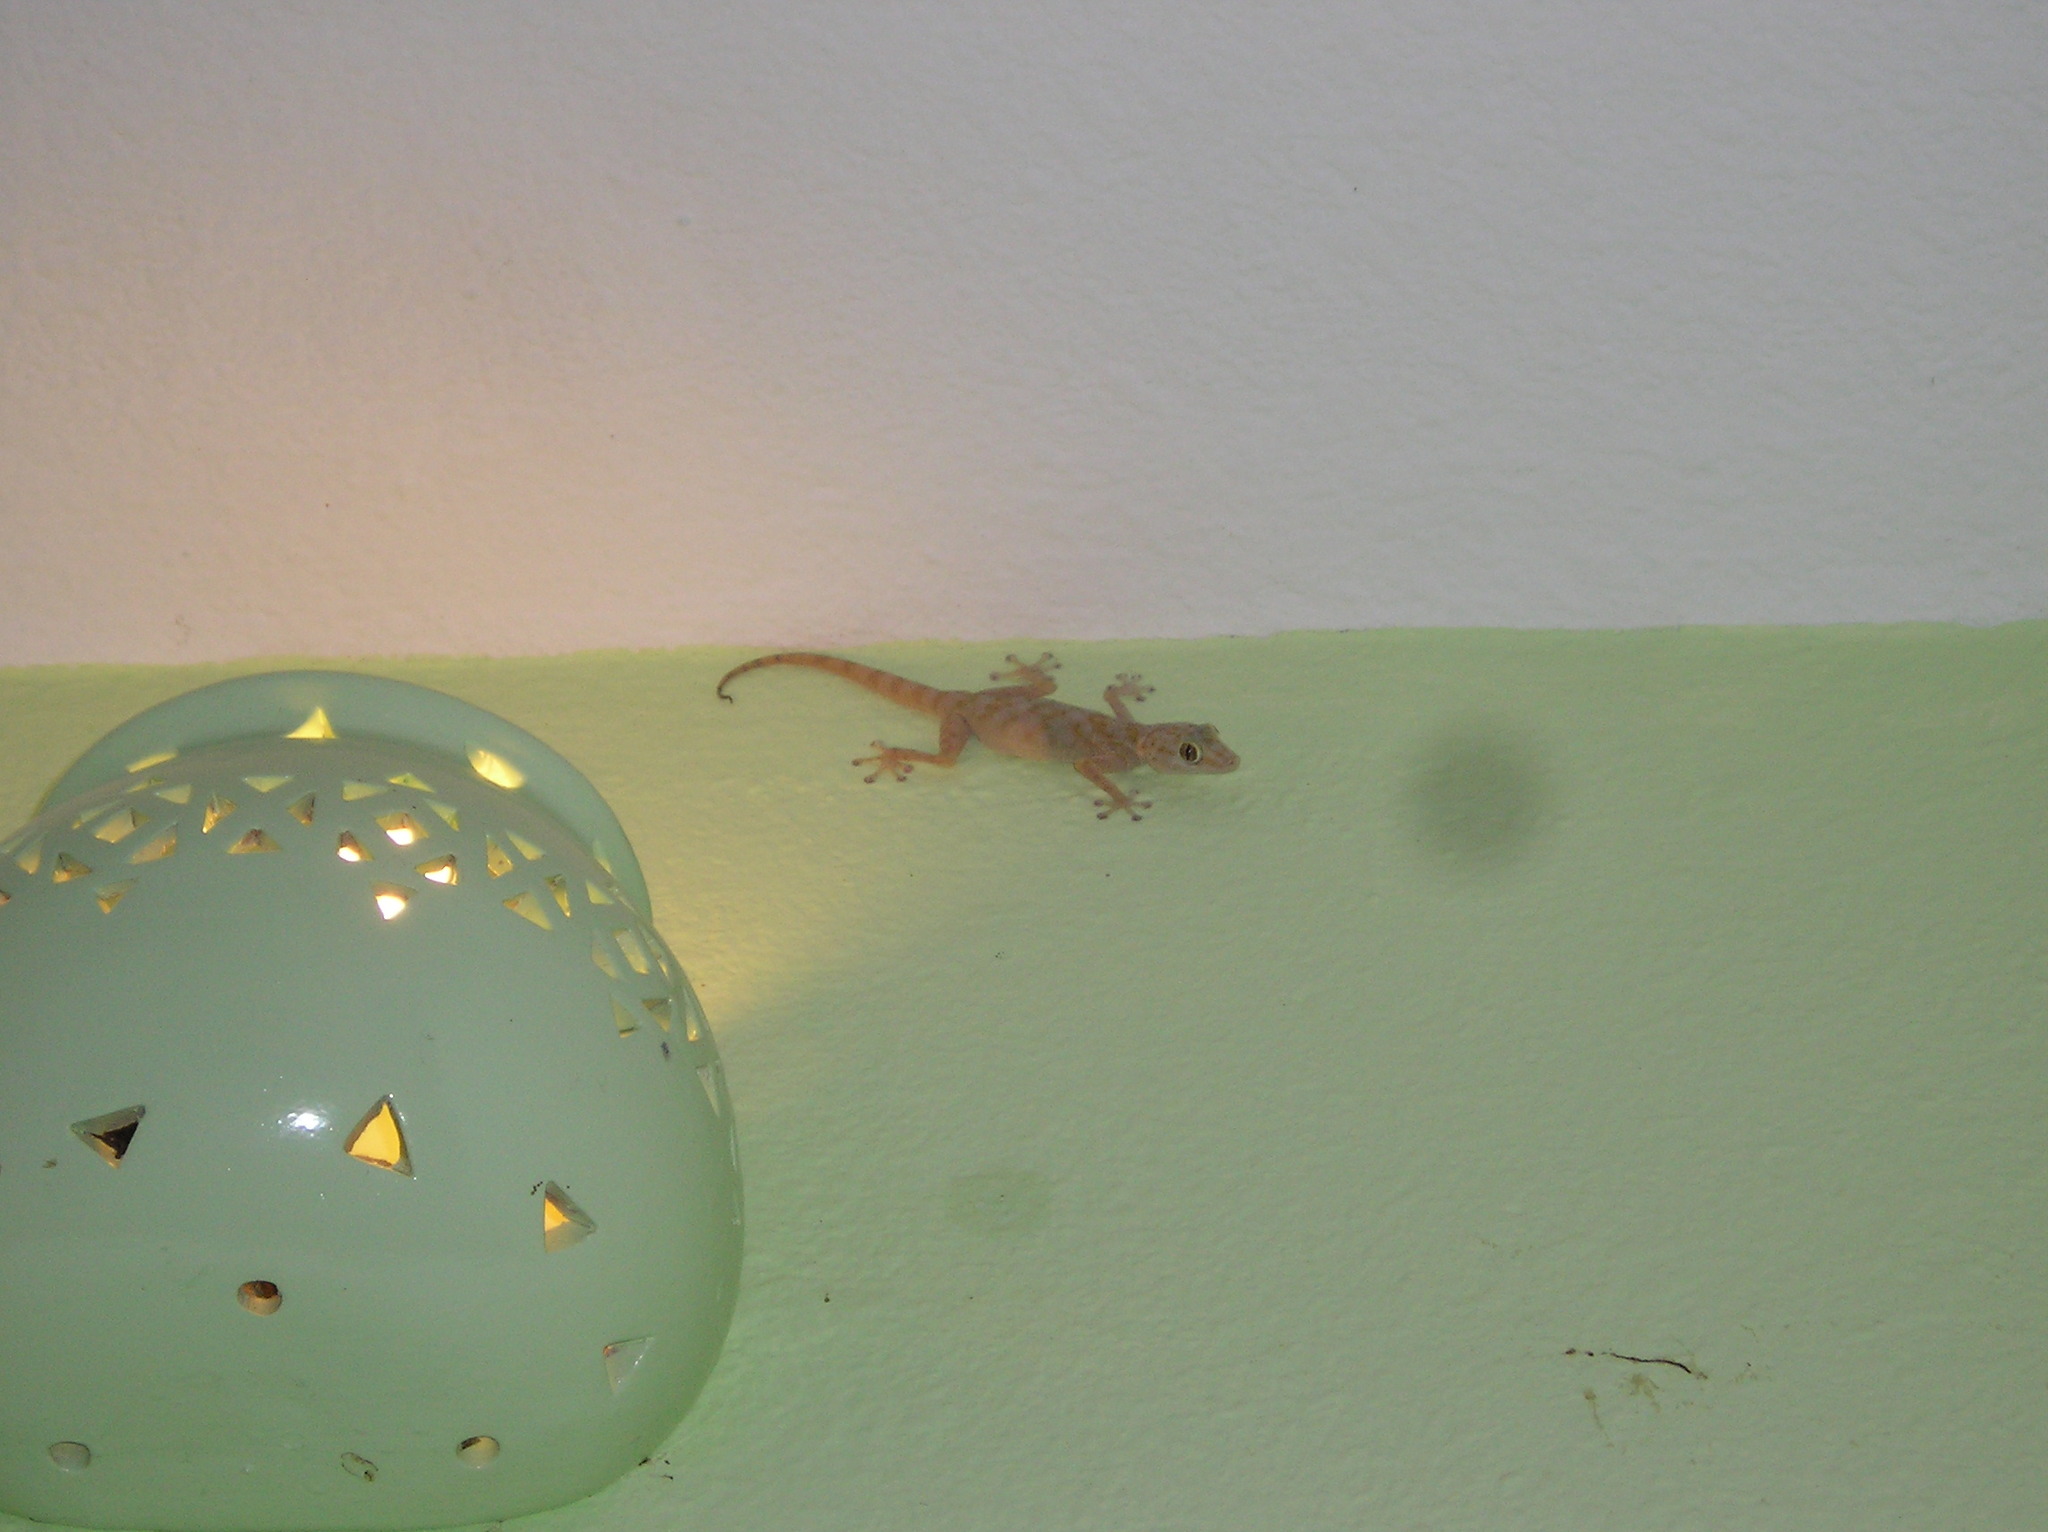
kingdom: Animalia
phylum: Chordata
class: Squamata
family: Phyllodactylidae
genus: Ptyodactylus
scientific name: Ptyodactylus hasselquistii
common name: Hasselquist’s fan-footed gecko
